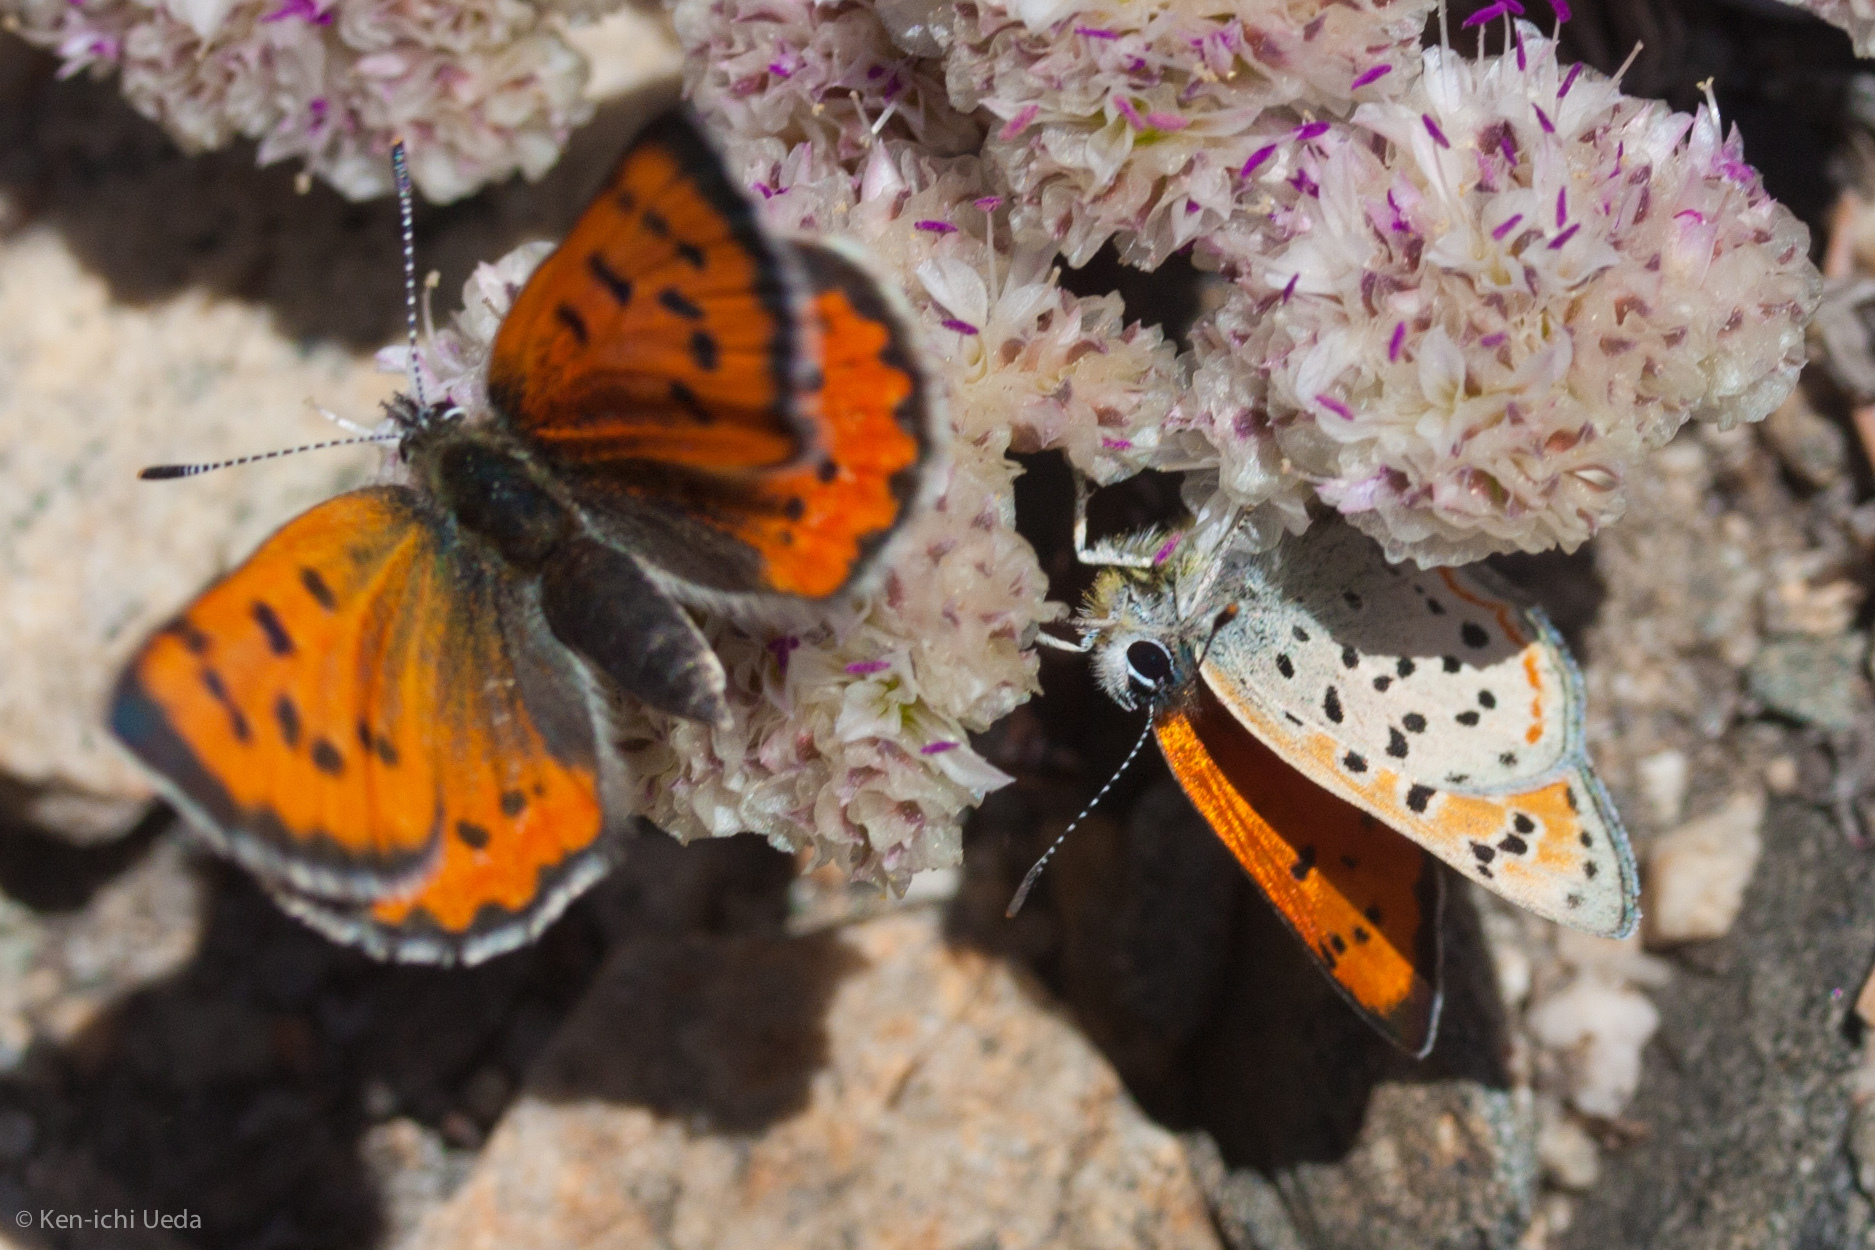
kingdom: Animalia
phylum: Arthropoda
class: Insecta
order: Lepidoptera
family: Lycaenidae
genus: Lycaena
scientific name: Lycaena cupreus
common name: Lustrous copper
